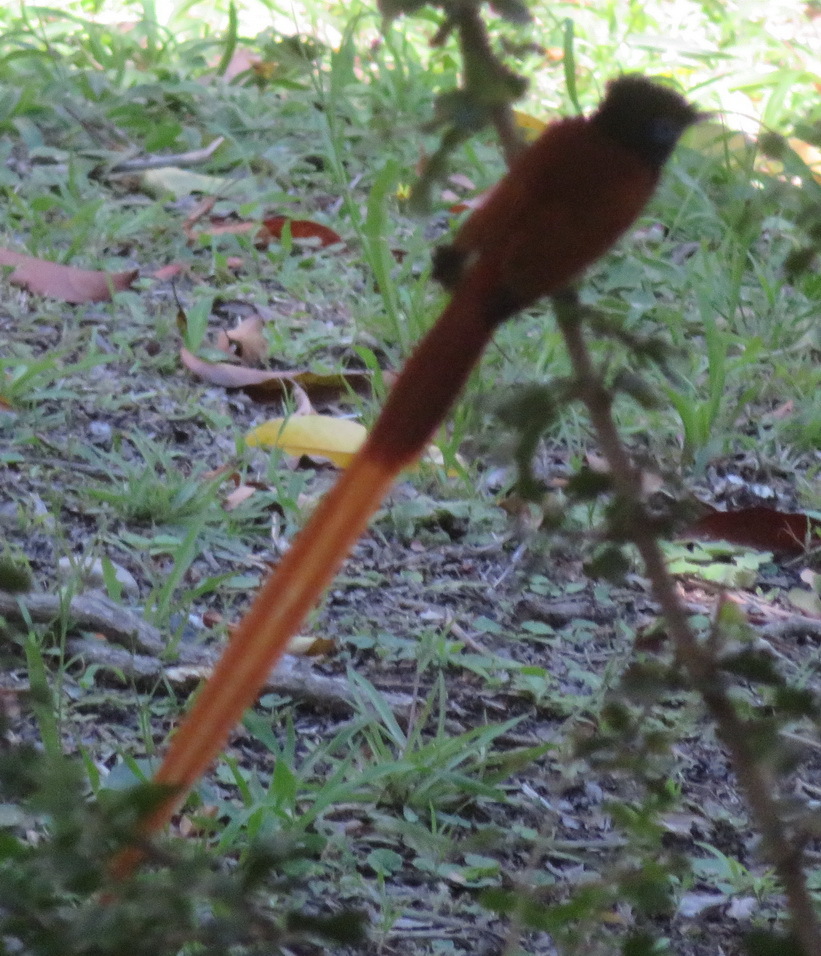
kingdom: Animalia
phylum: Chordata
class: Aves
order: Passeriformes
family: Monarchidae
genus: Terpsiphone
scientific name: Terpsiphone viridis
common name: African paradise flycatcher
